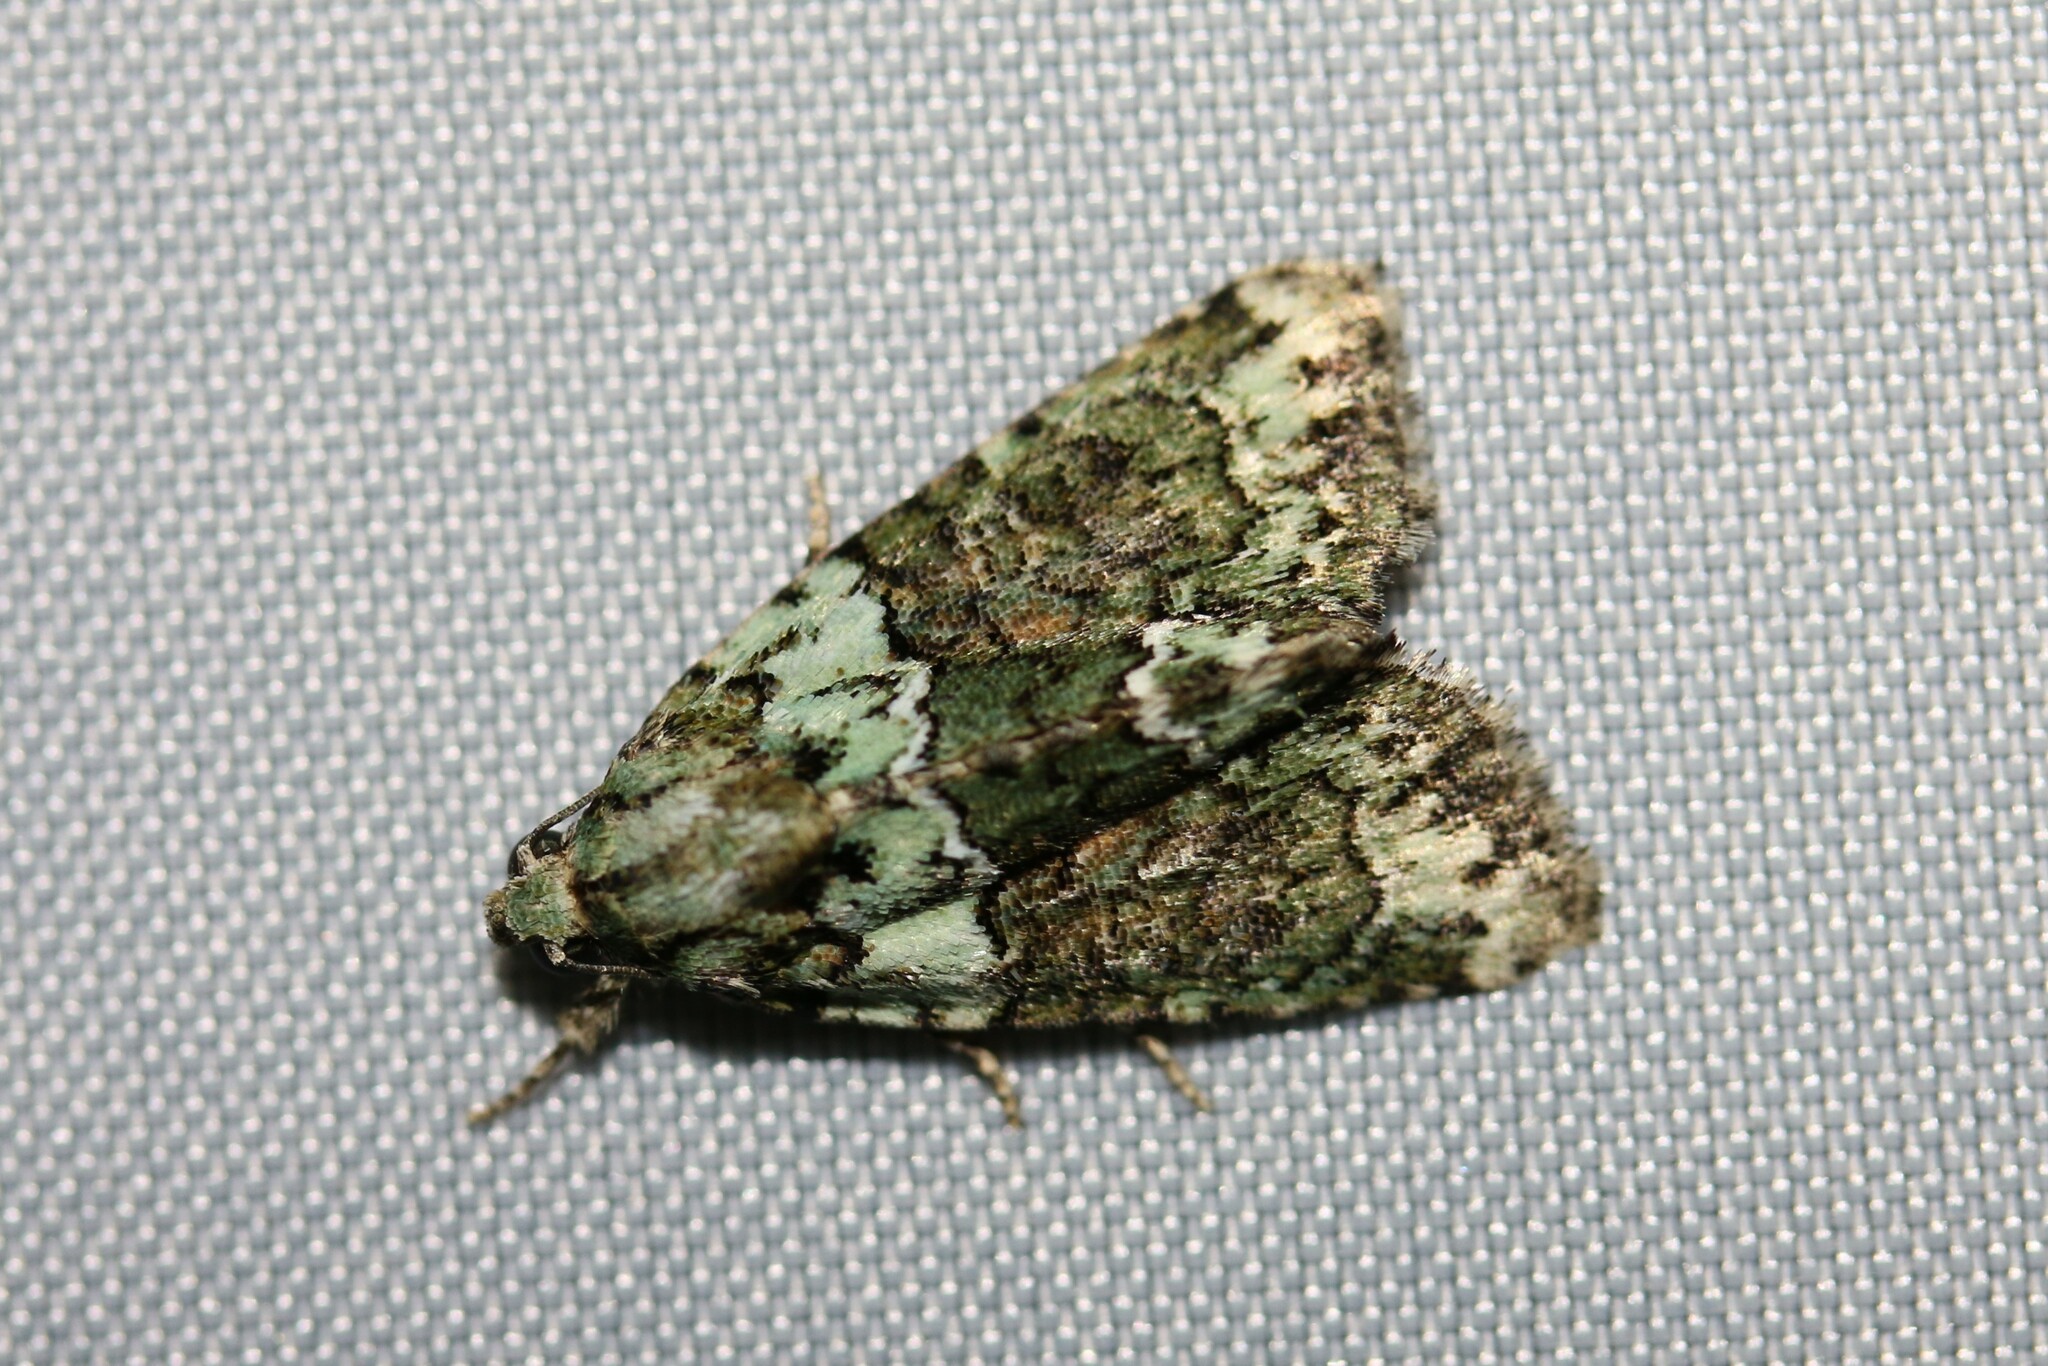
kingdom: Animalia
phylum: Arthropoda
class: Insecta
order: Lepidoptera
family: Noctuidae
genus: Cryphia
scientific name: Cryphia algae
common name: Tree-lichen beauty
